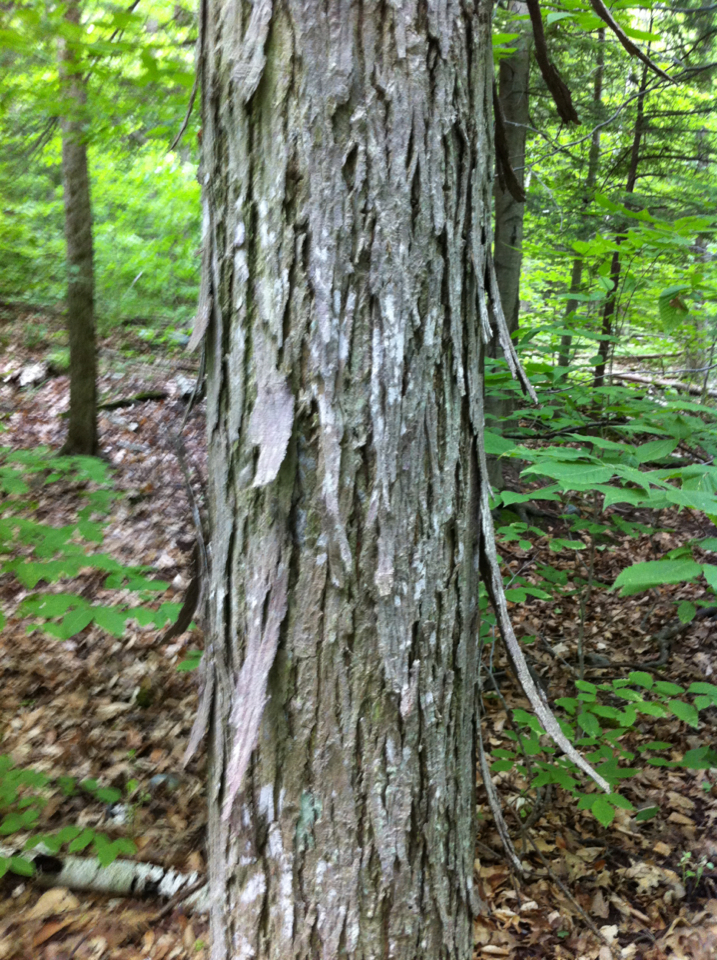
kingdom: Plantae
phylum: Tracheophyta
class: Magnoliopsida
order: Fagales
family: Juglandaceae
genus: Carya
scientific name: Carya ovata
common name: Shagbark hickory
